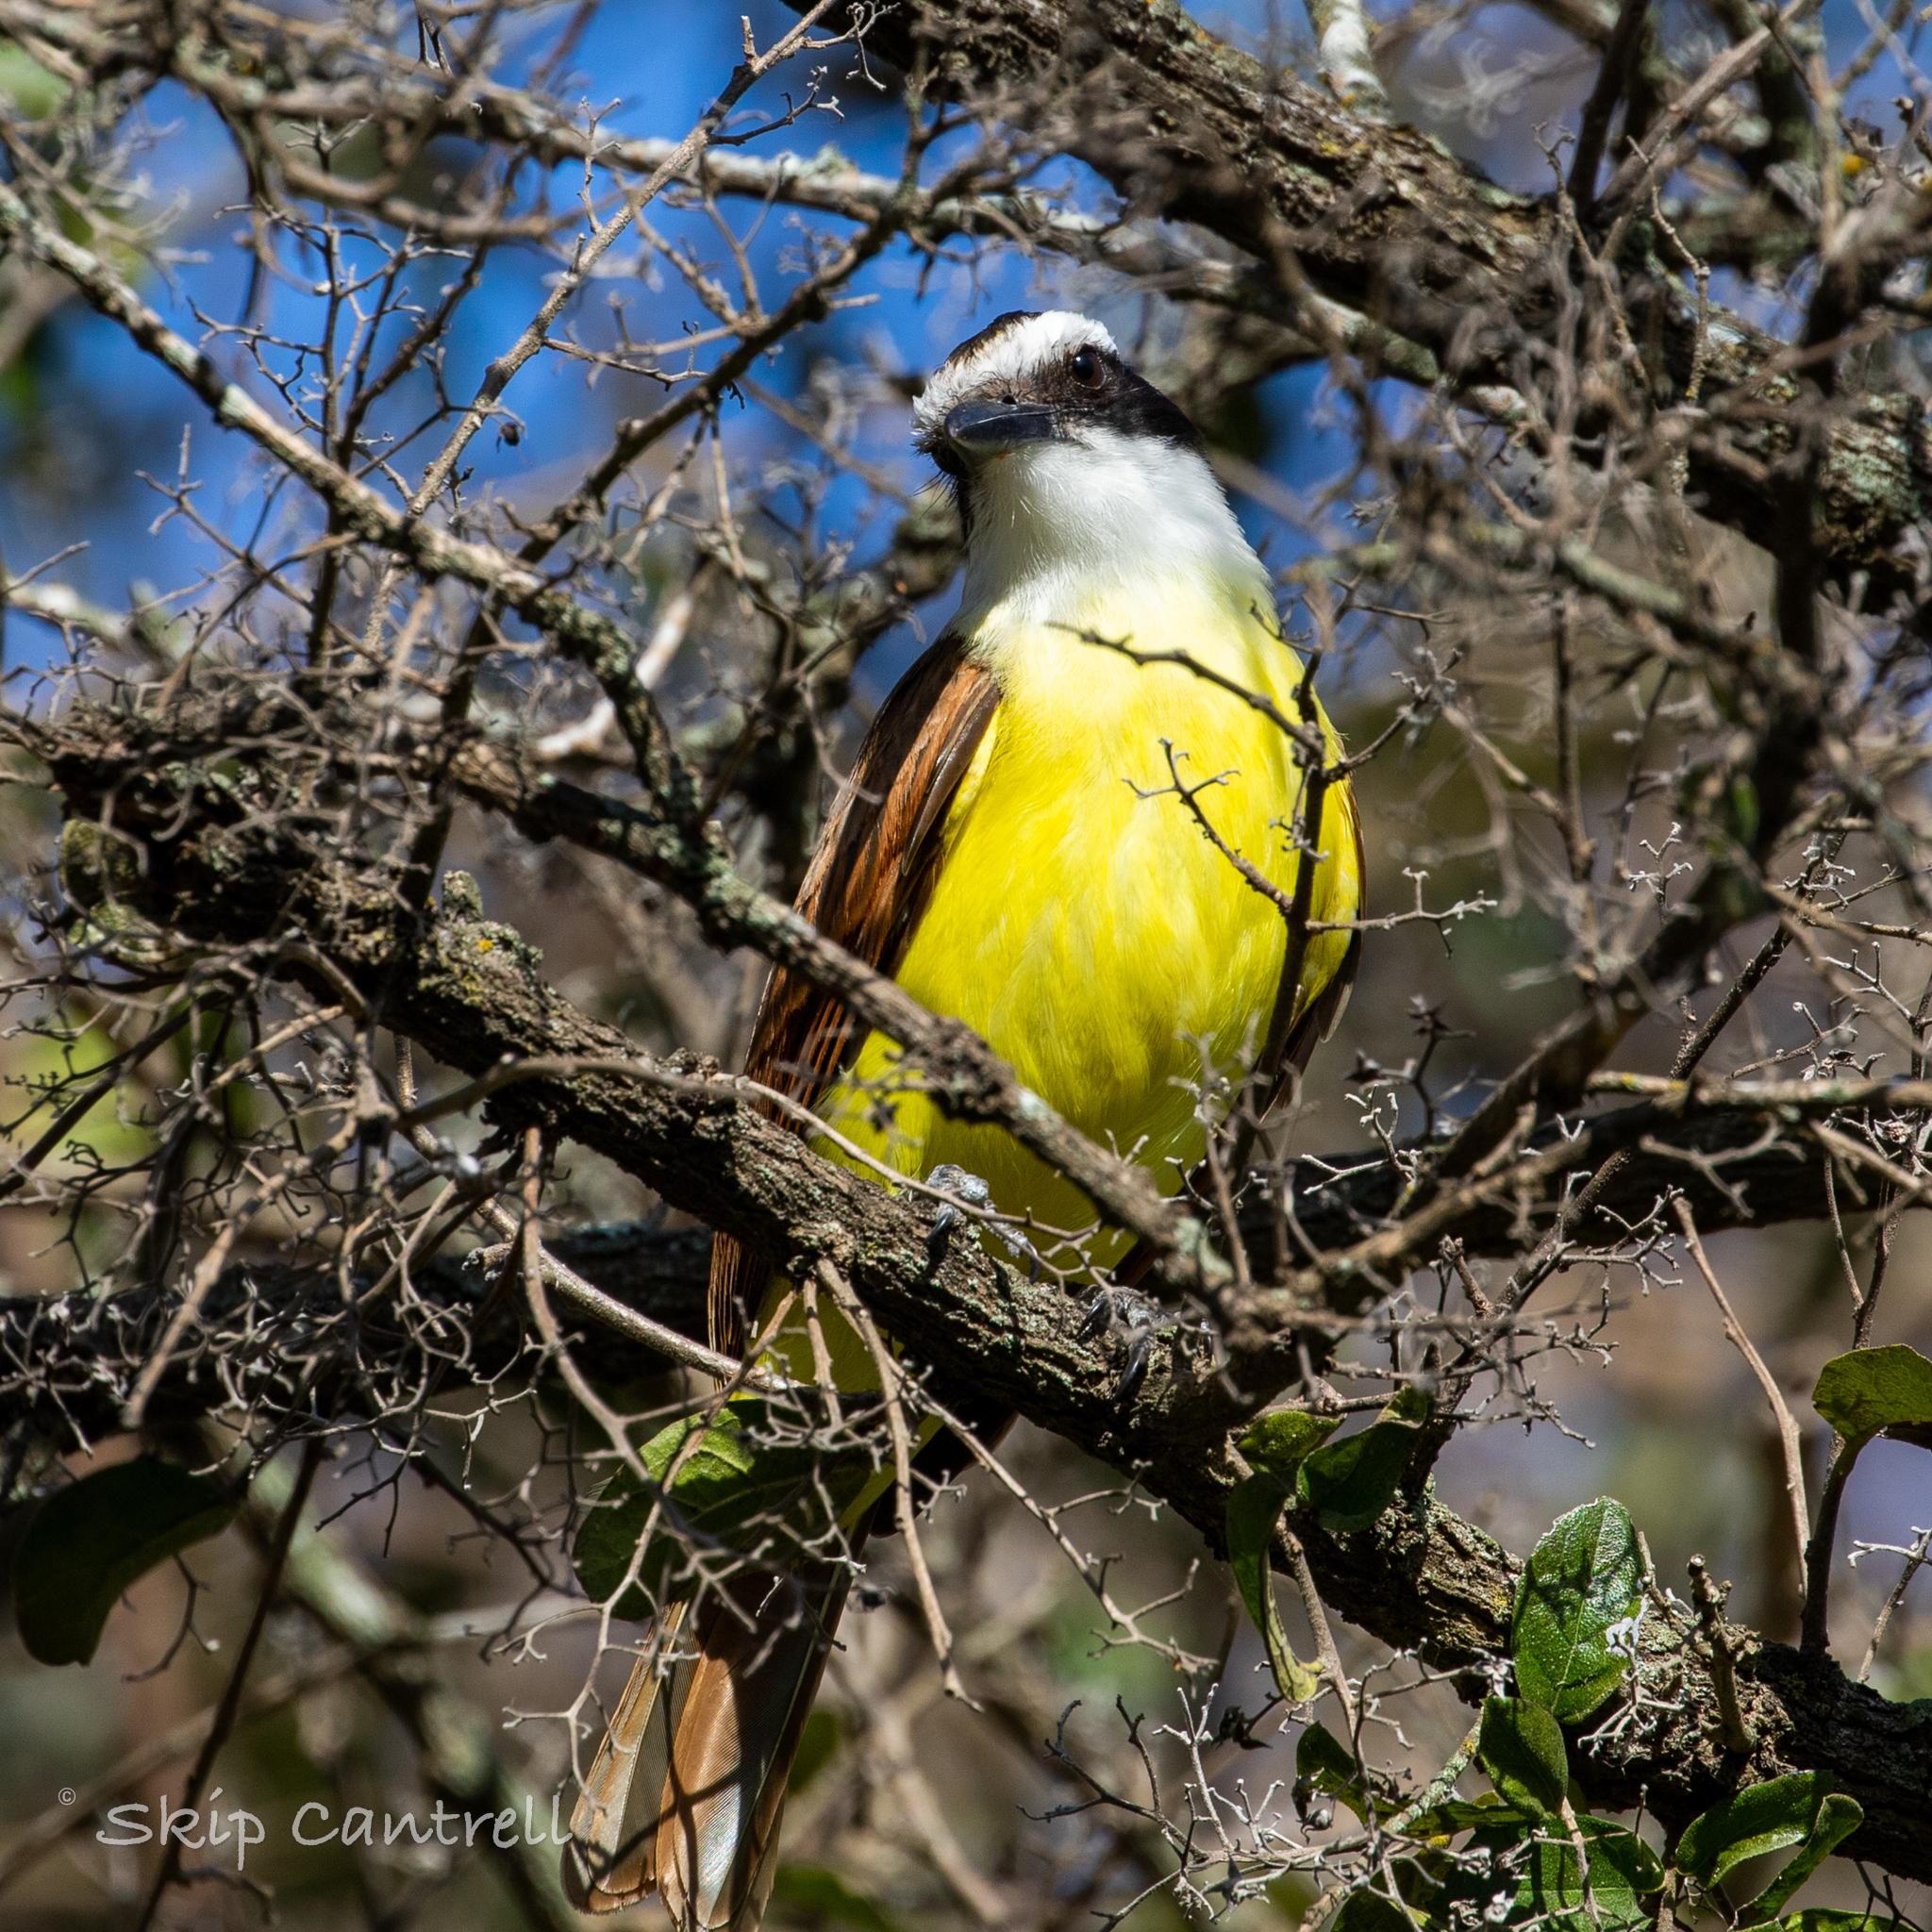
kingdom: Animalia
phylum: Chordata
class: Aves
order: Passeriformes
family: Tyrannidae
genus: Pitangus
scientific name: Pitangus sulphuratus
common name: Great kiskadee
